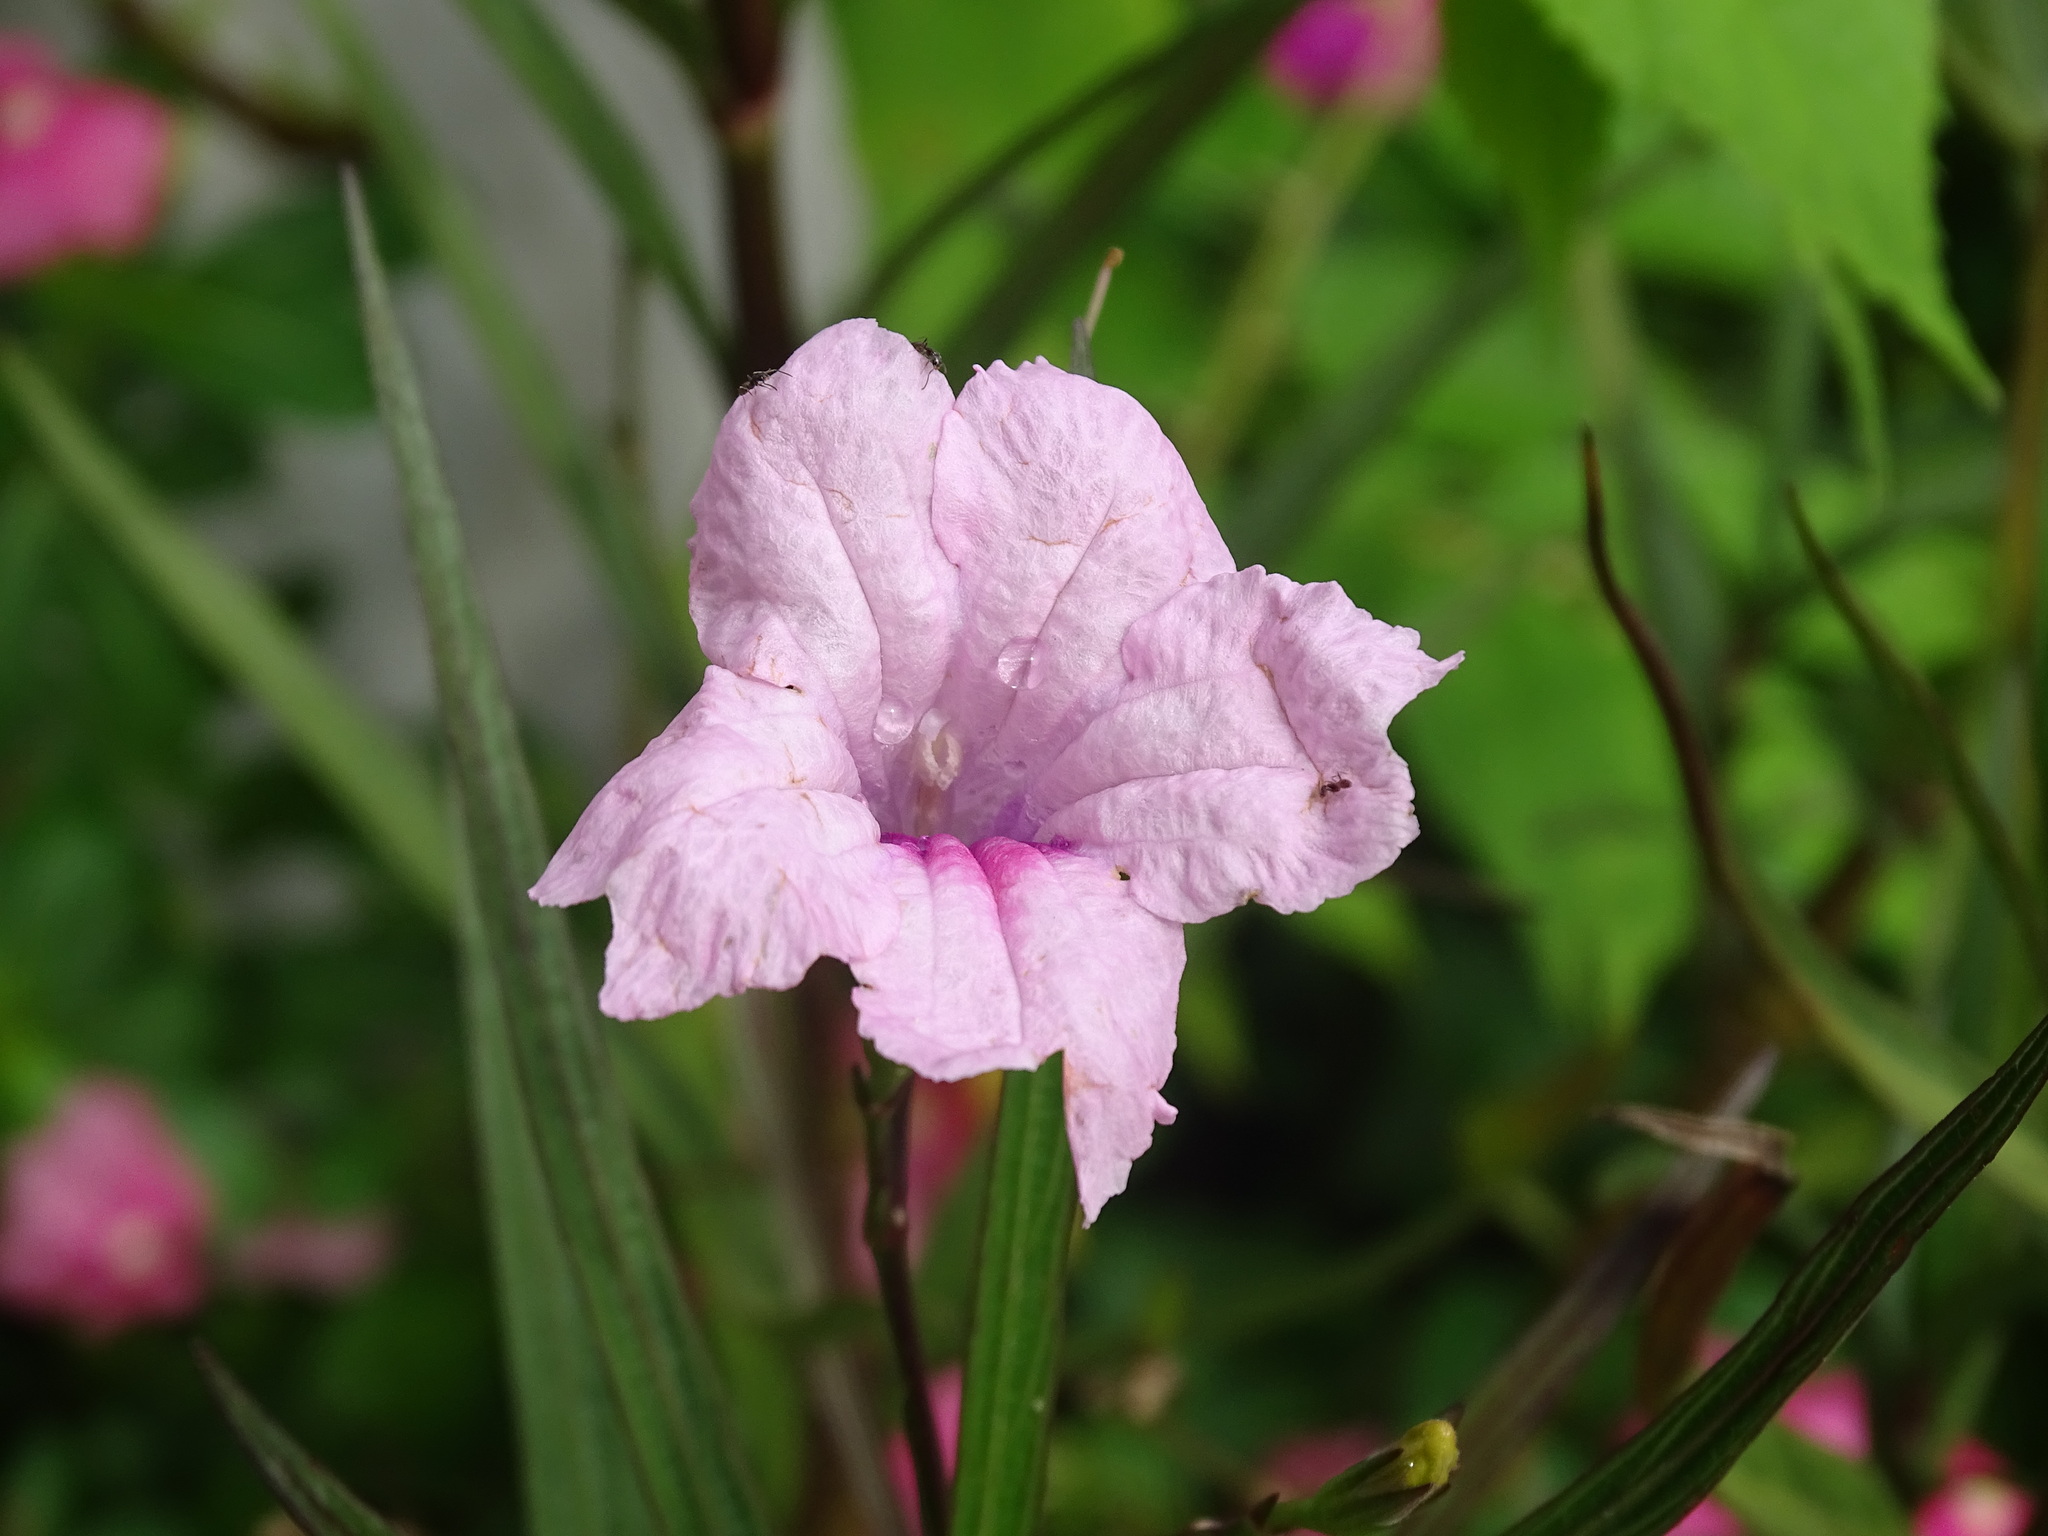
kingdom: Plantae
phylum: Tracheophyta
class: Magnoliopsida
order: Lamiales
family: Acanthaceae
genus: Ruellia
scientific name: Ruellia simplex
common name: Softseed wild petunia
